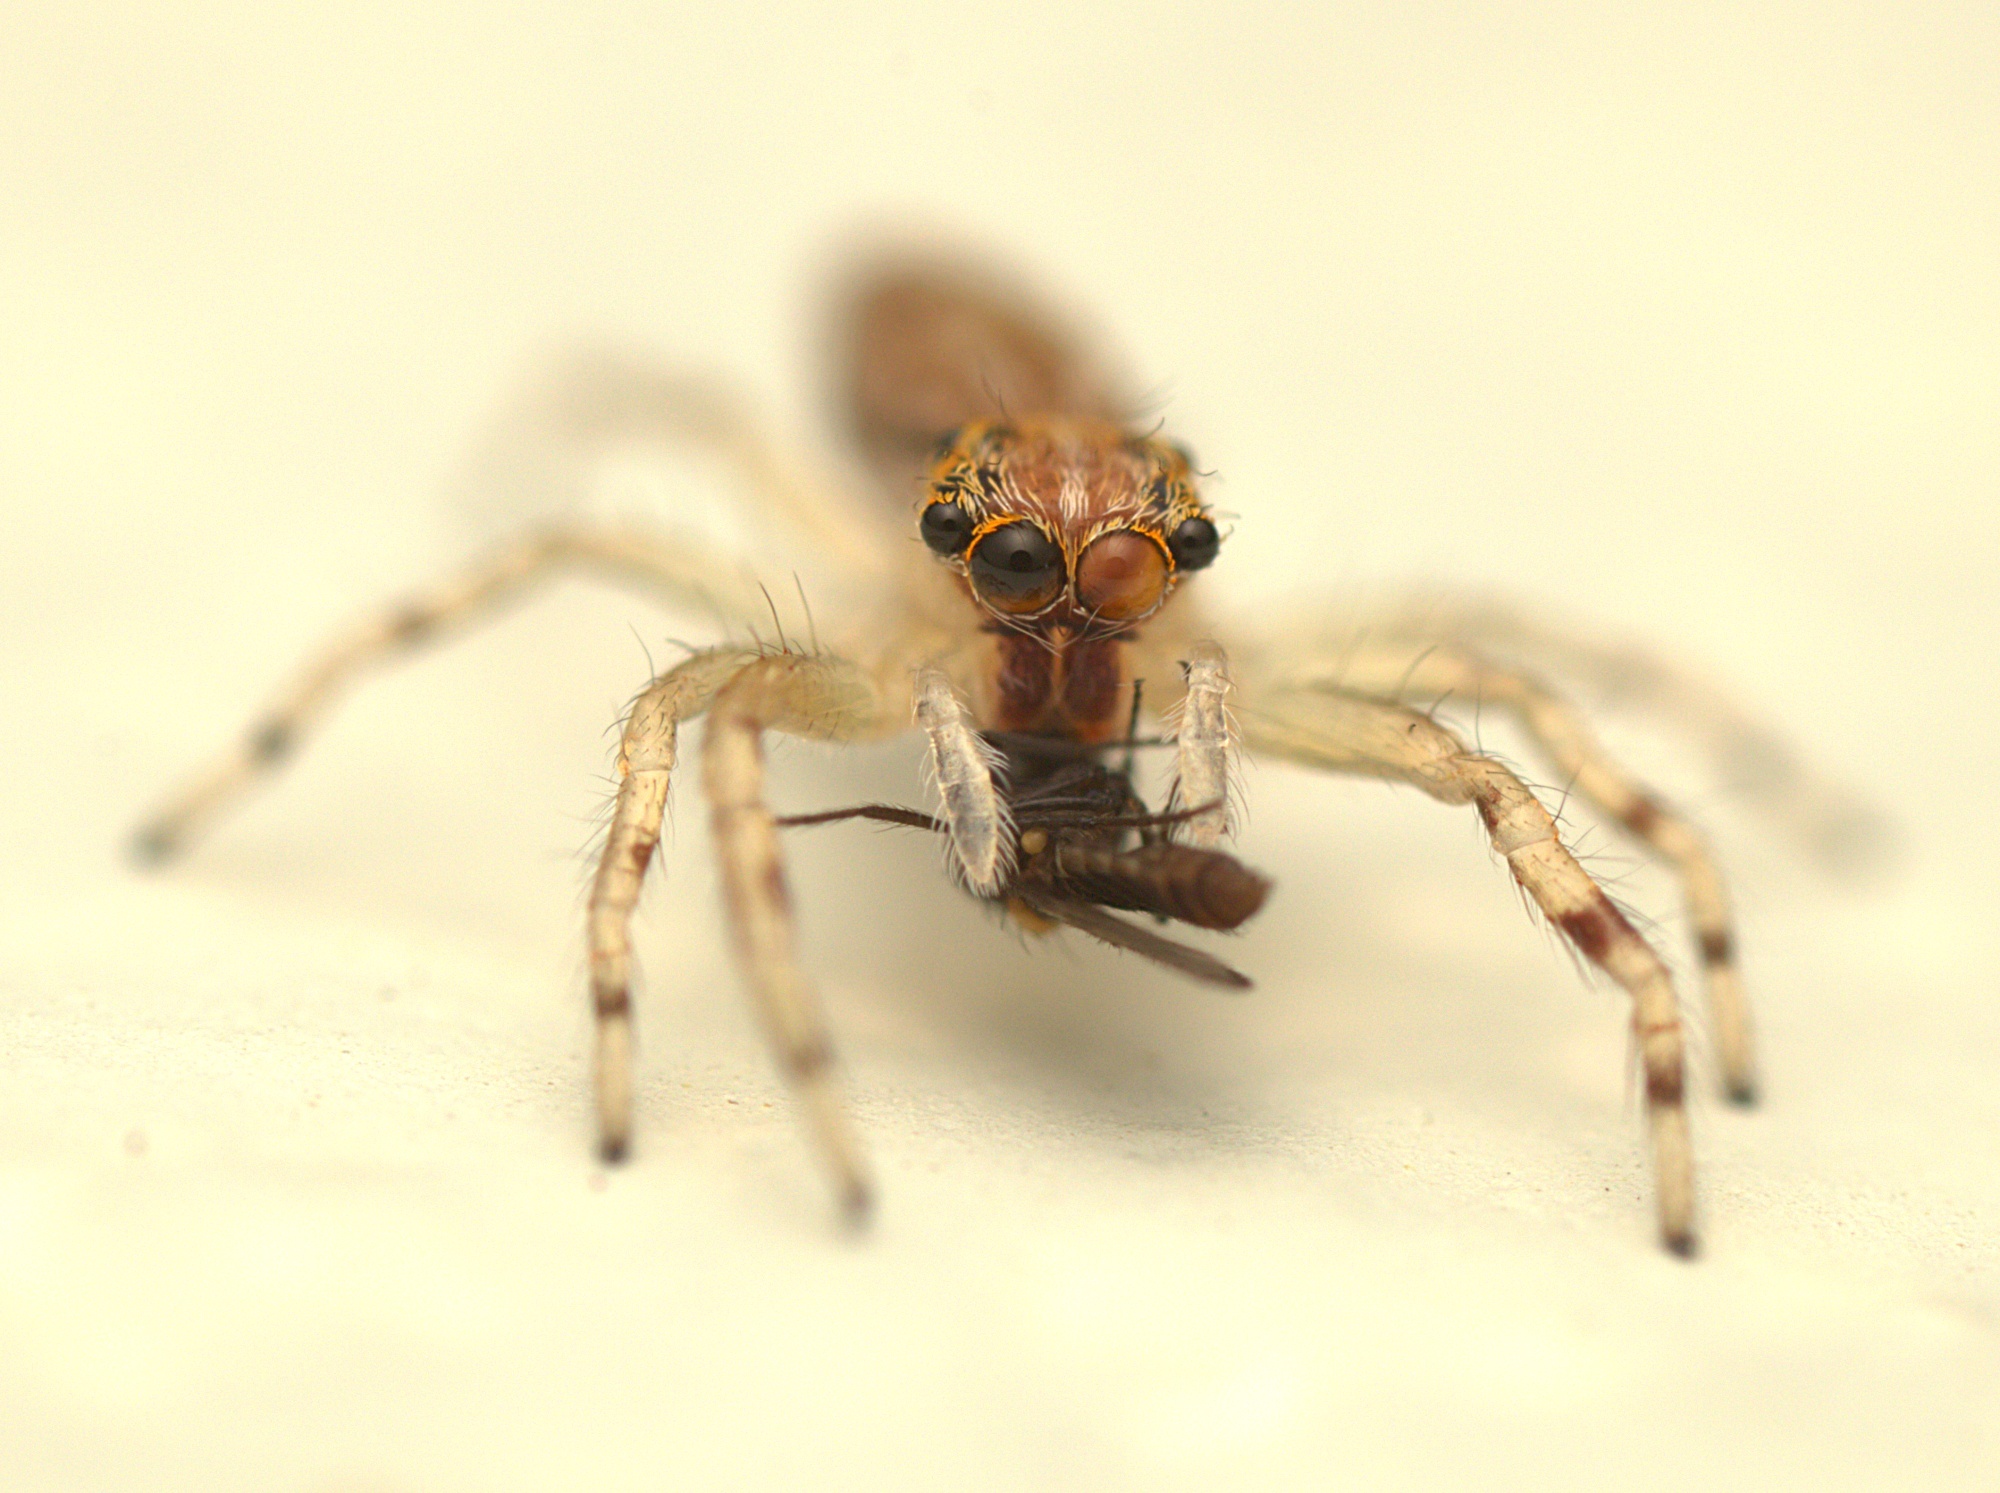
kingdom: Animalia
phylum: Arthropoda
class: Arachnida
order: Araneae
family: Salticidae
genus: Helpis
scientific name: Helpis minitabunda
